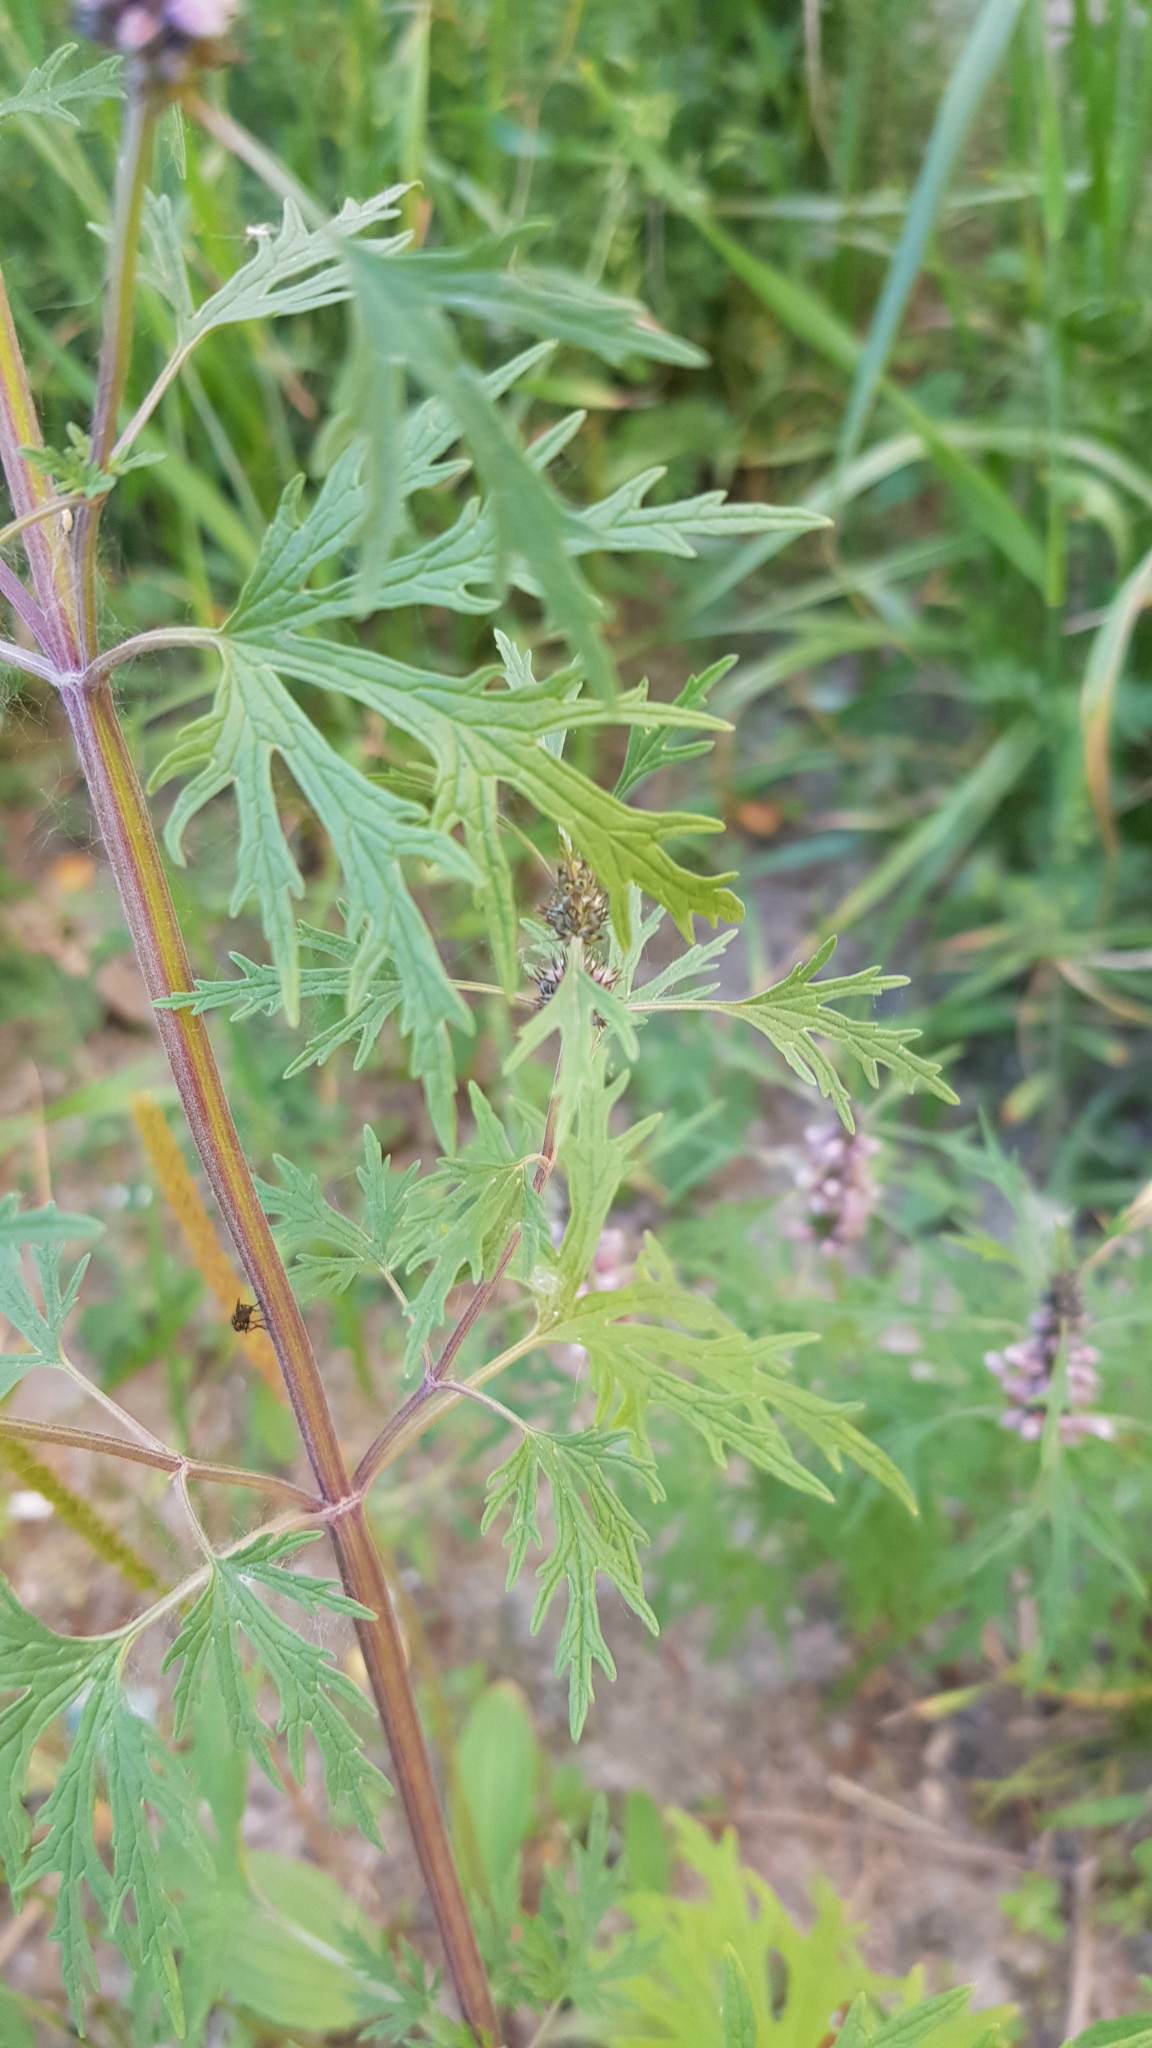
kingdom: Plantae
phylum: Tracheophyta
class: Magnoliopsida
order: Lamiales
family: Lamiaceae
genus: Leonurus
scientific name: Leonurus deminutus
